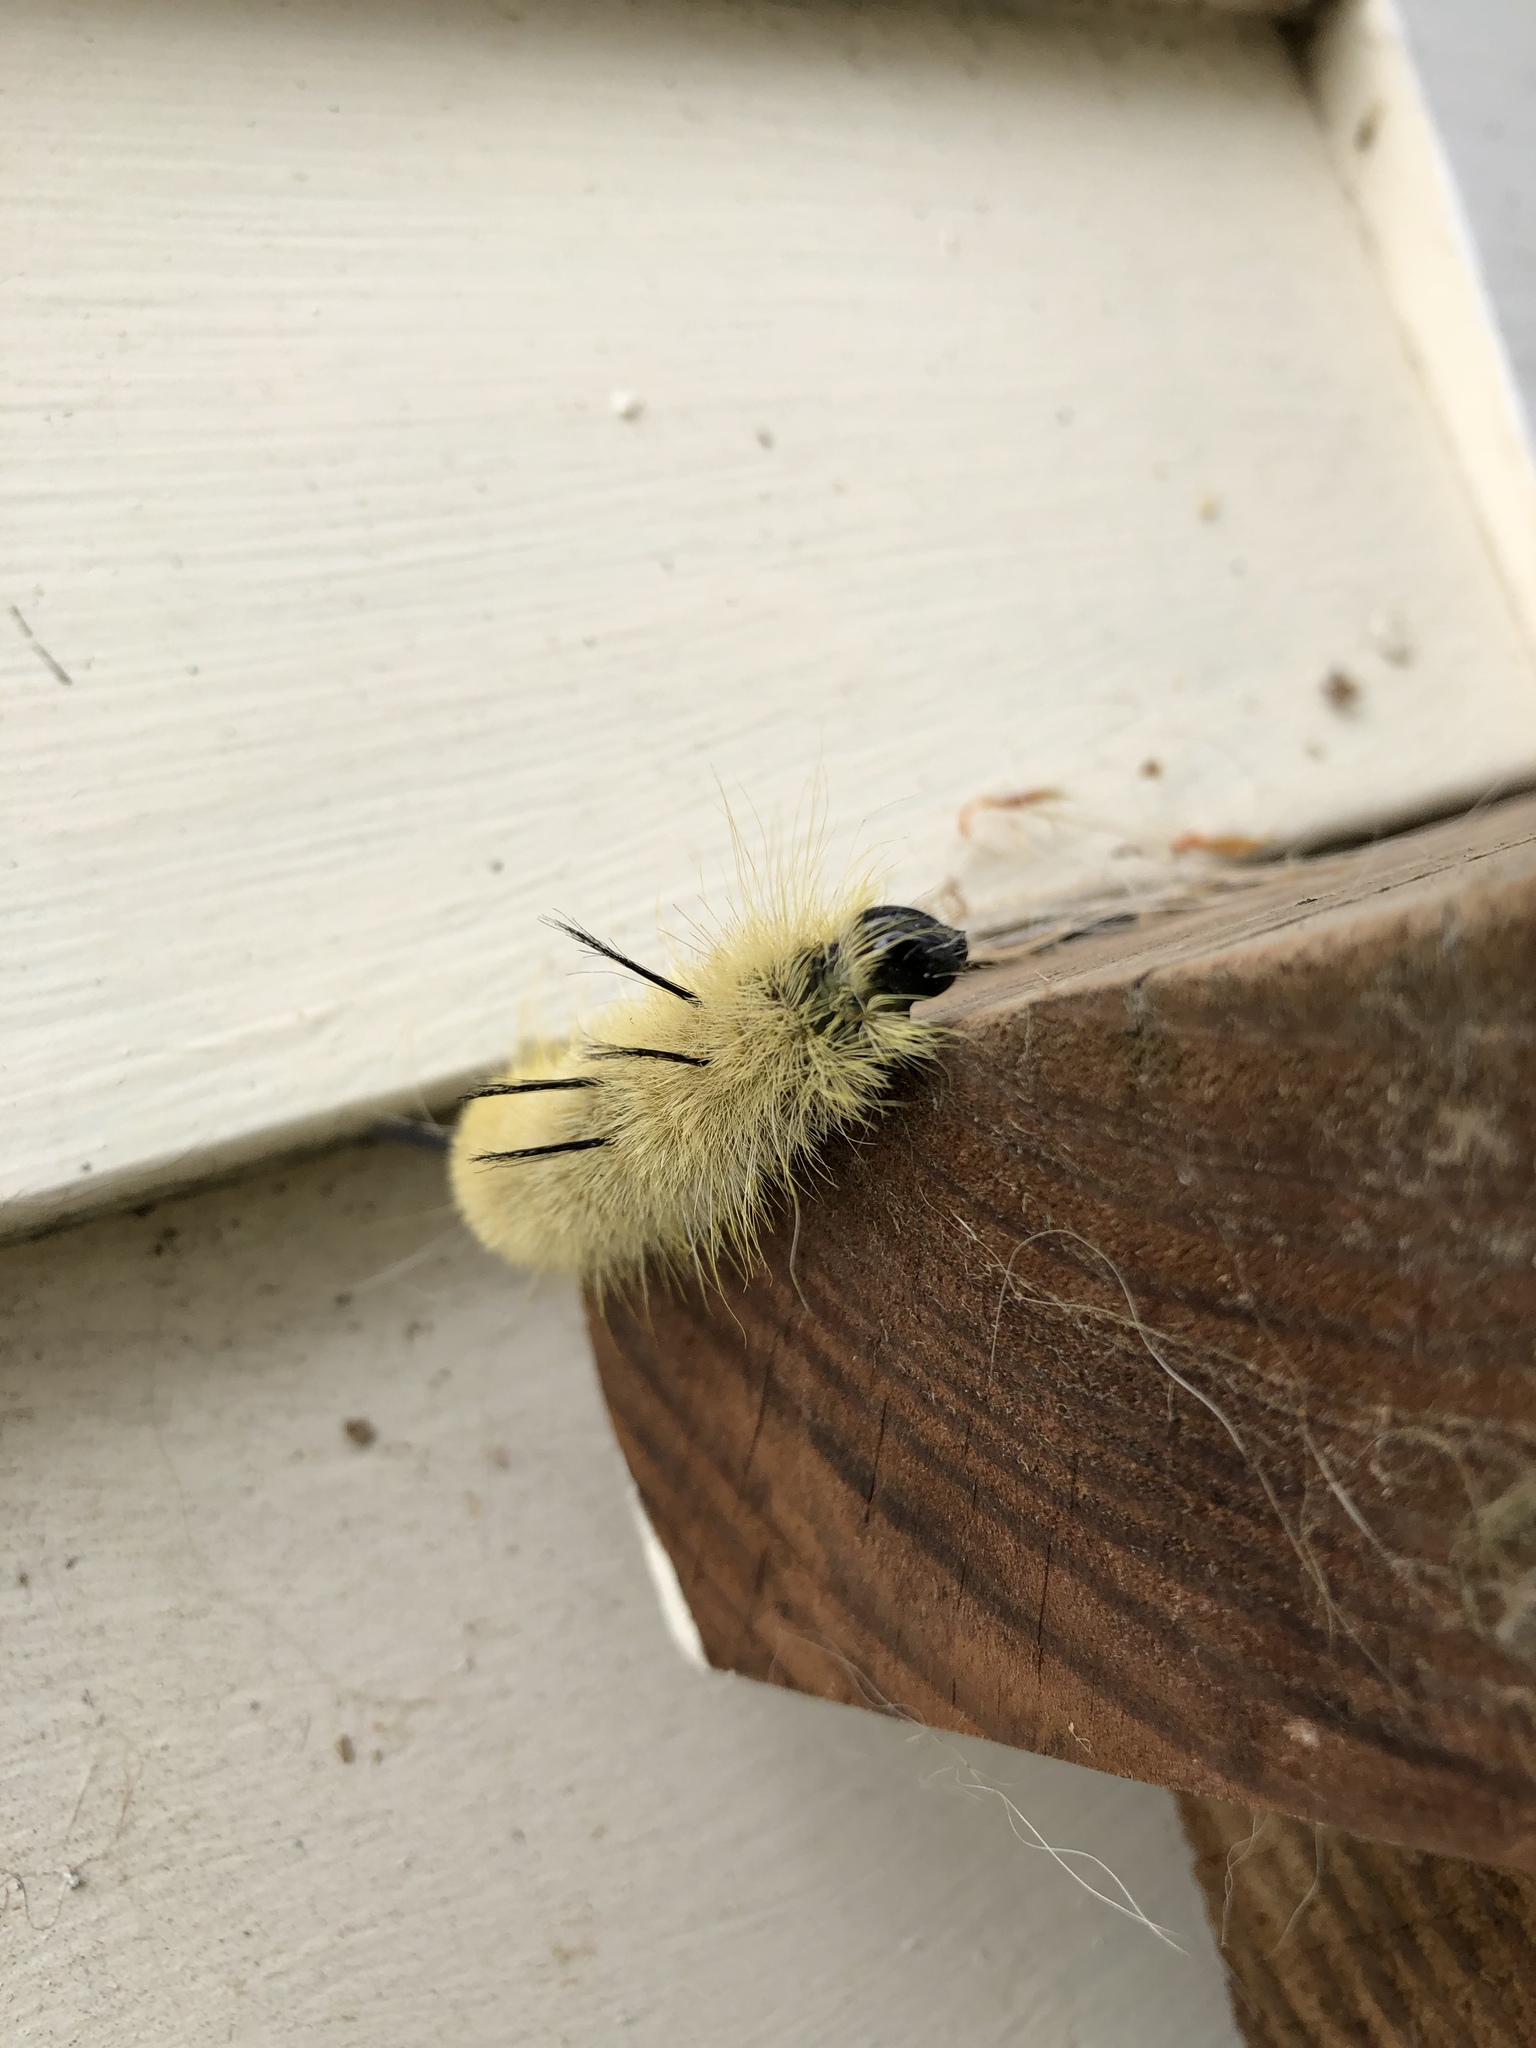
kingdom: Animalia
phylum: Arthropoda
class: Insecta
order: Lepidoptera
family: Noctuidae
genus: Acronicta
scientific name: Acronicta americana
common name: American dagger
